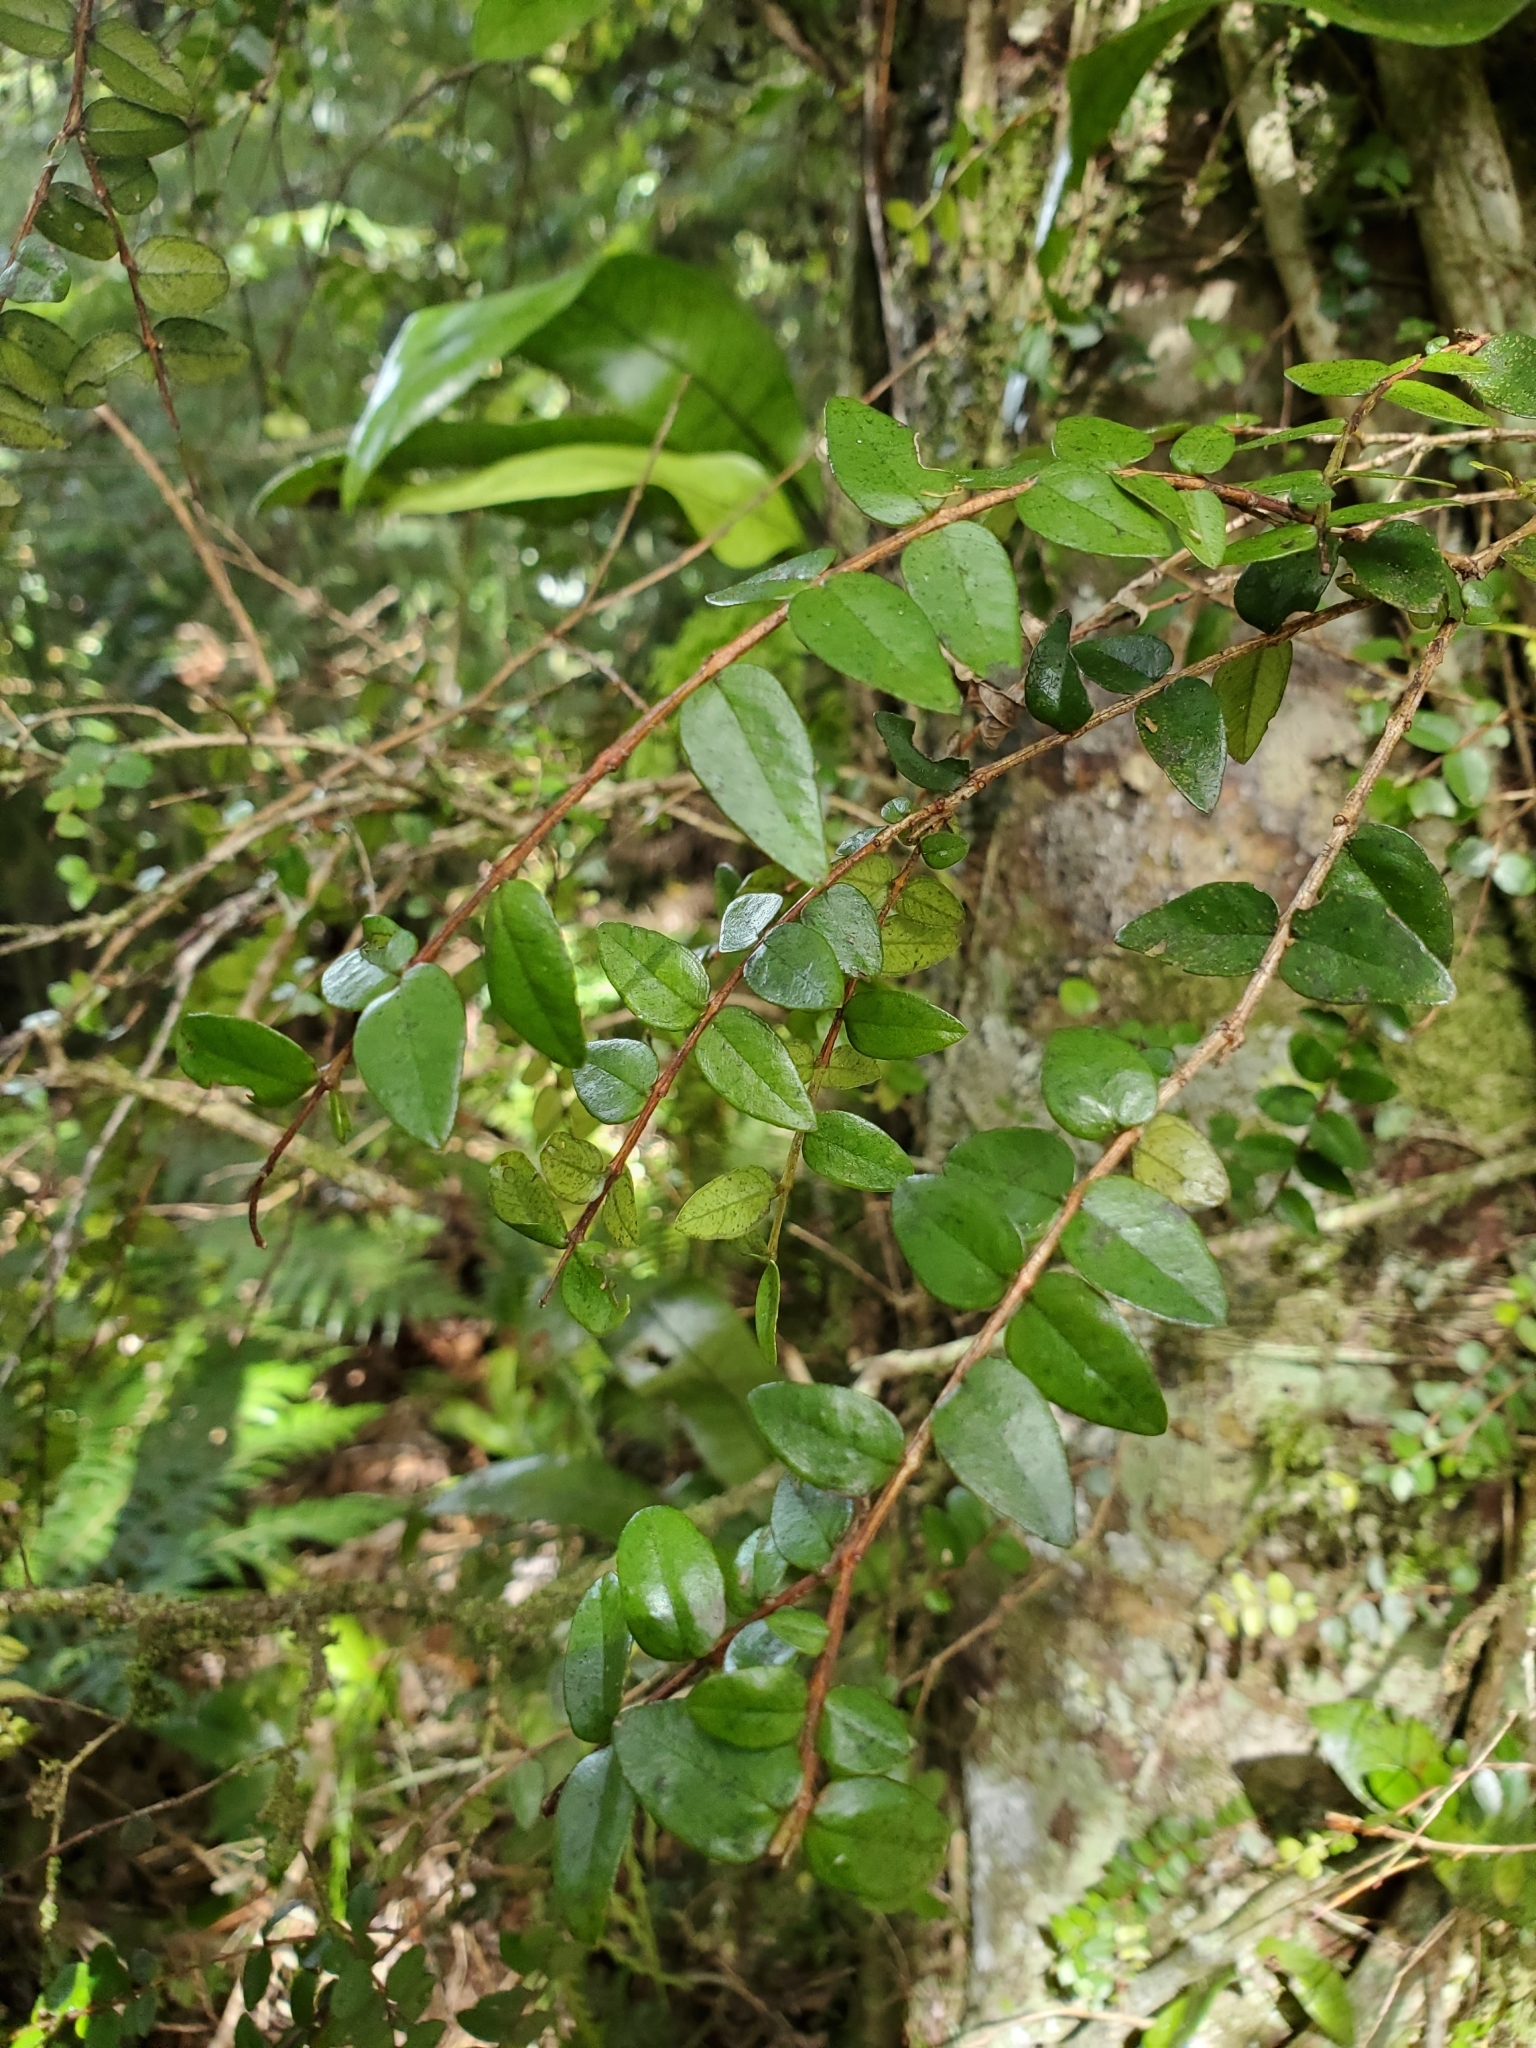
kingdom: Plantae
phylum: Tracheophyta
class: Magnoliopsida
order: Myrtales
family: Myrtaceae
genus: Metrosideros
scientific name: Metrosideros diffusa
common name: Small ratavine
